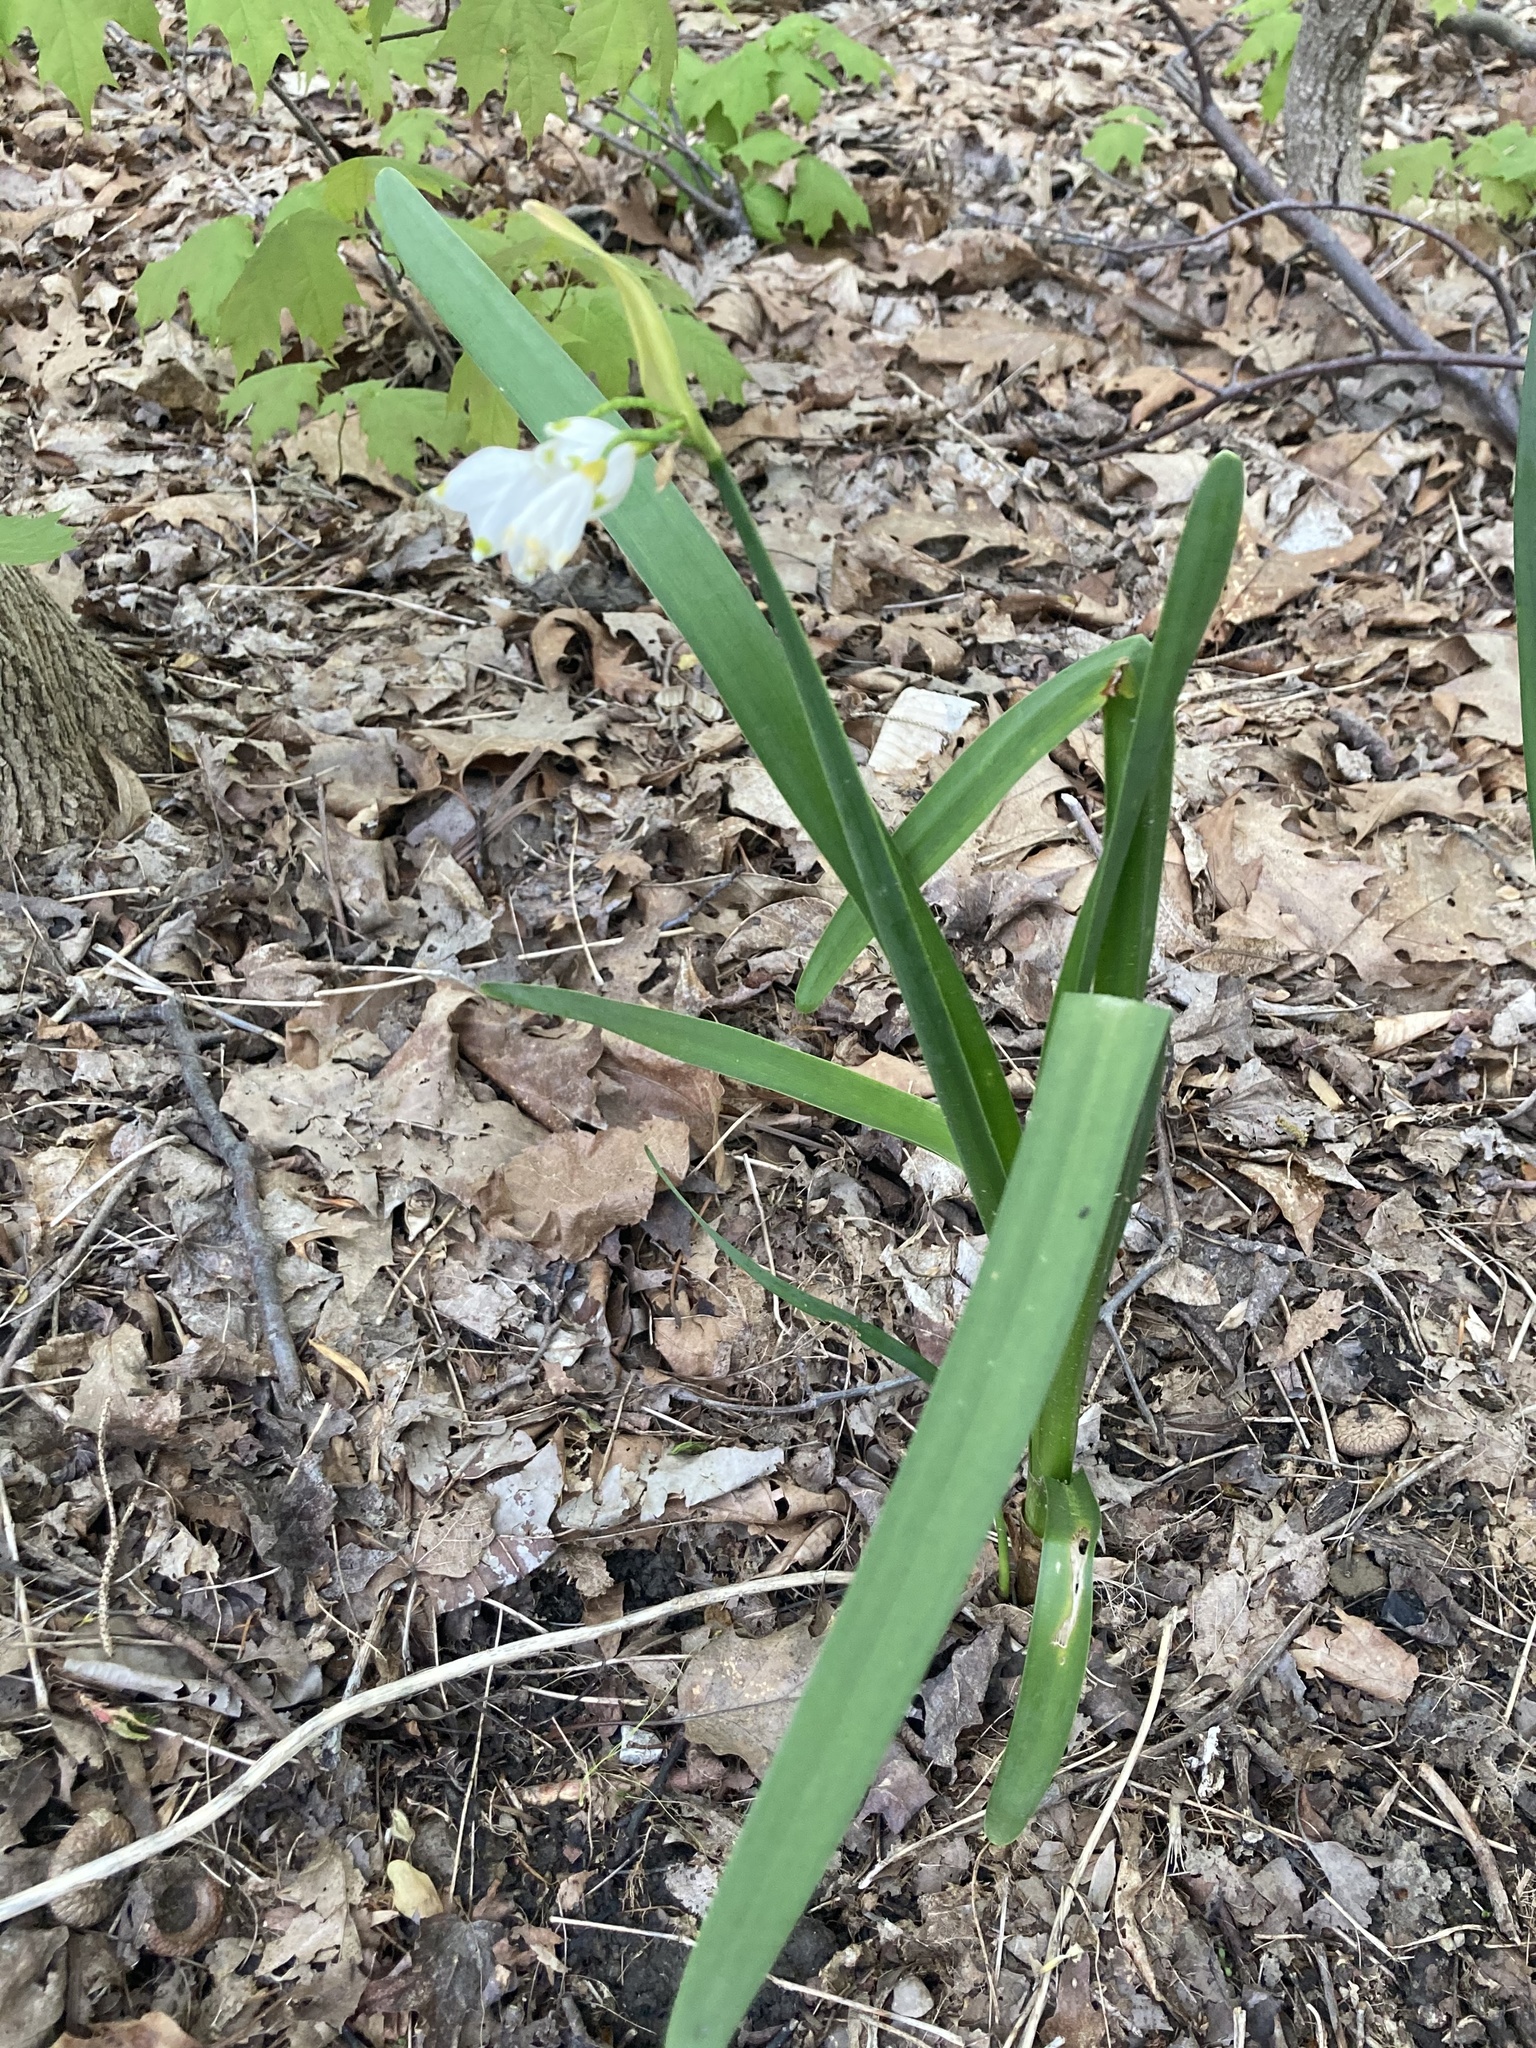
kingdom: Plantae
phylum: Tracheophyta
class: Liliopsida
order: Asparagales
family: Amaryllidaceae
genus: Leucojum
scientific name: Leucojum aestivum
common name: Summer snowflake
